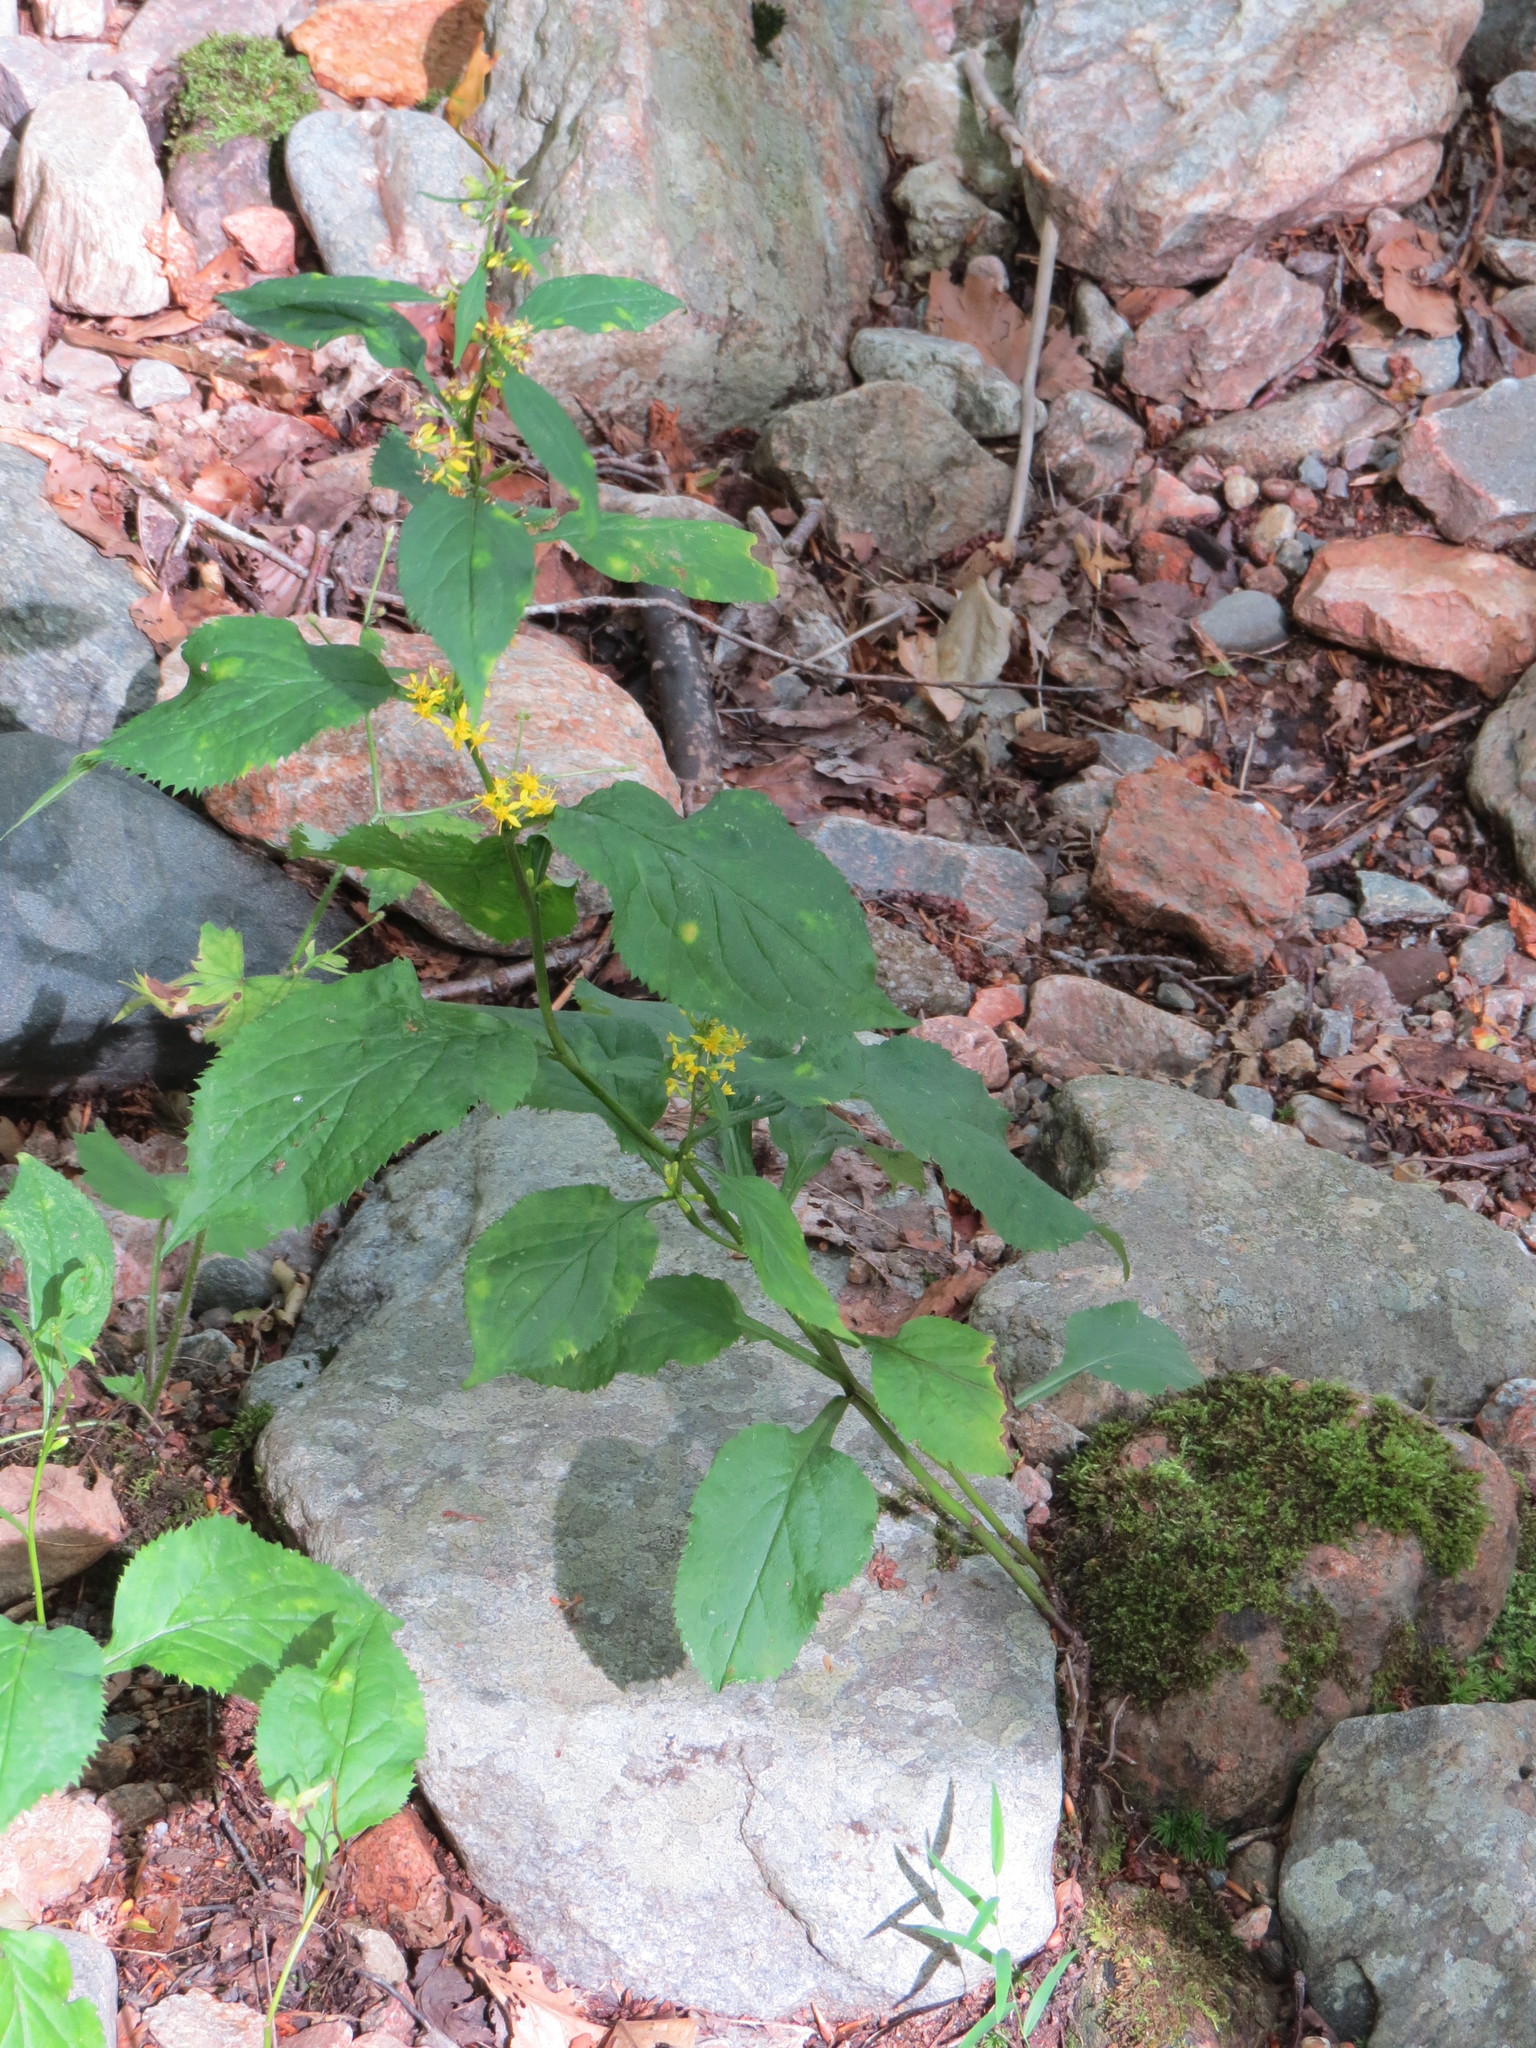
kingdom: Plantae
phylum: Tracheophyta
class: Magnoliopsida
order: Asterales
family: Asteraceae
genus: Solidago
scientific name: Solidago flexicaulis
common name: Zig-zag goldenrod
